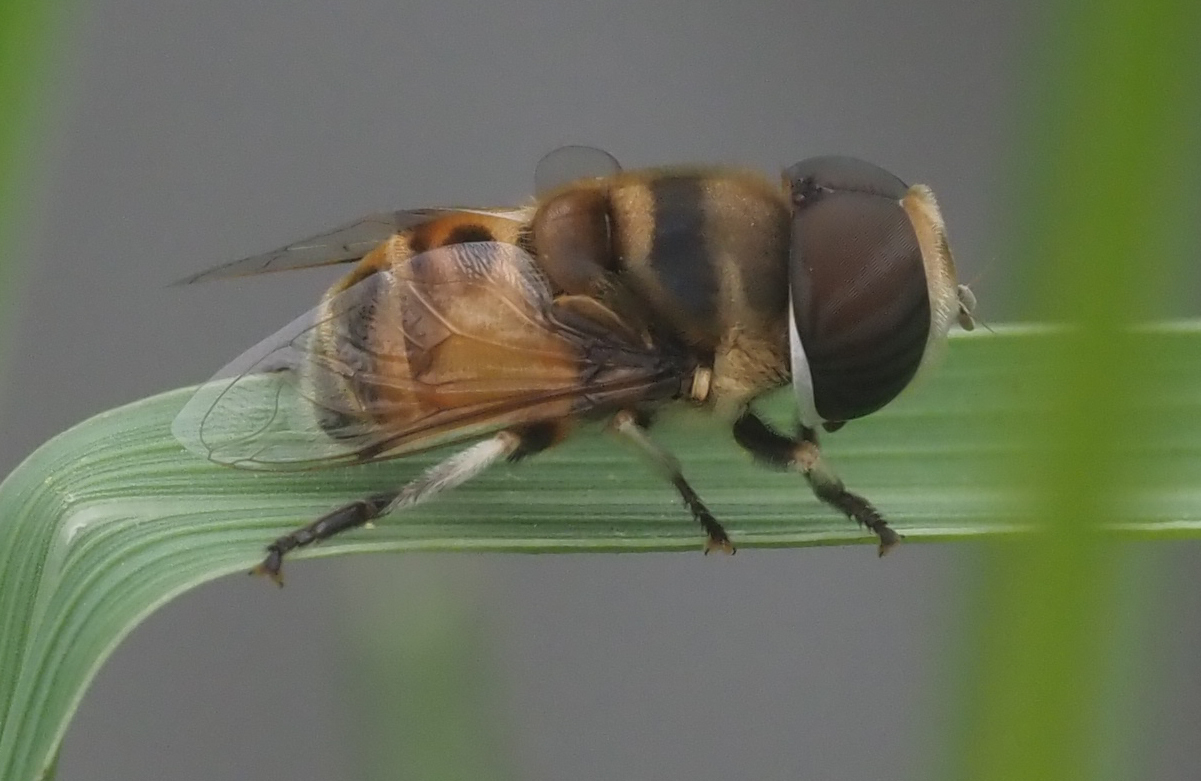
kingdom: Animalia
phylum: Arthropoda
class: Insecta
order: Diptera
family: Syrphidae
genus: Phytomia
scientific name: Phytomia erratica
